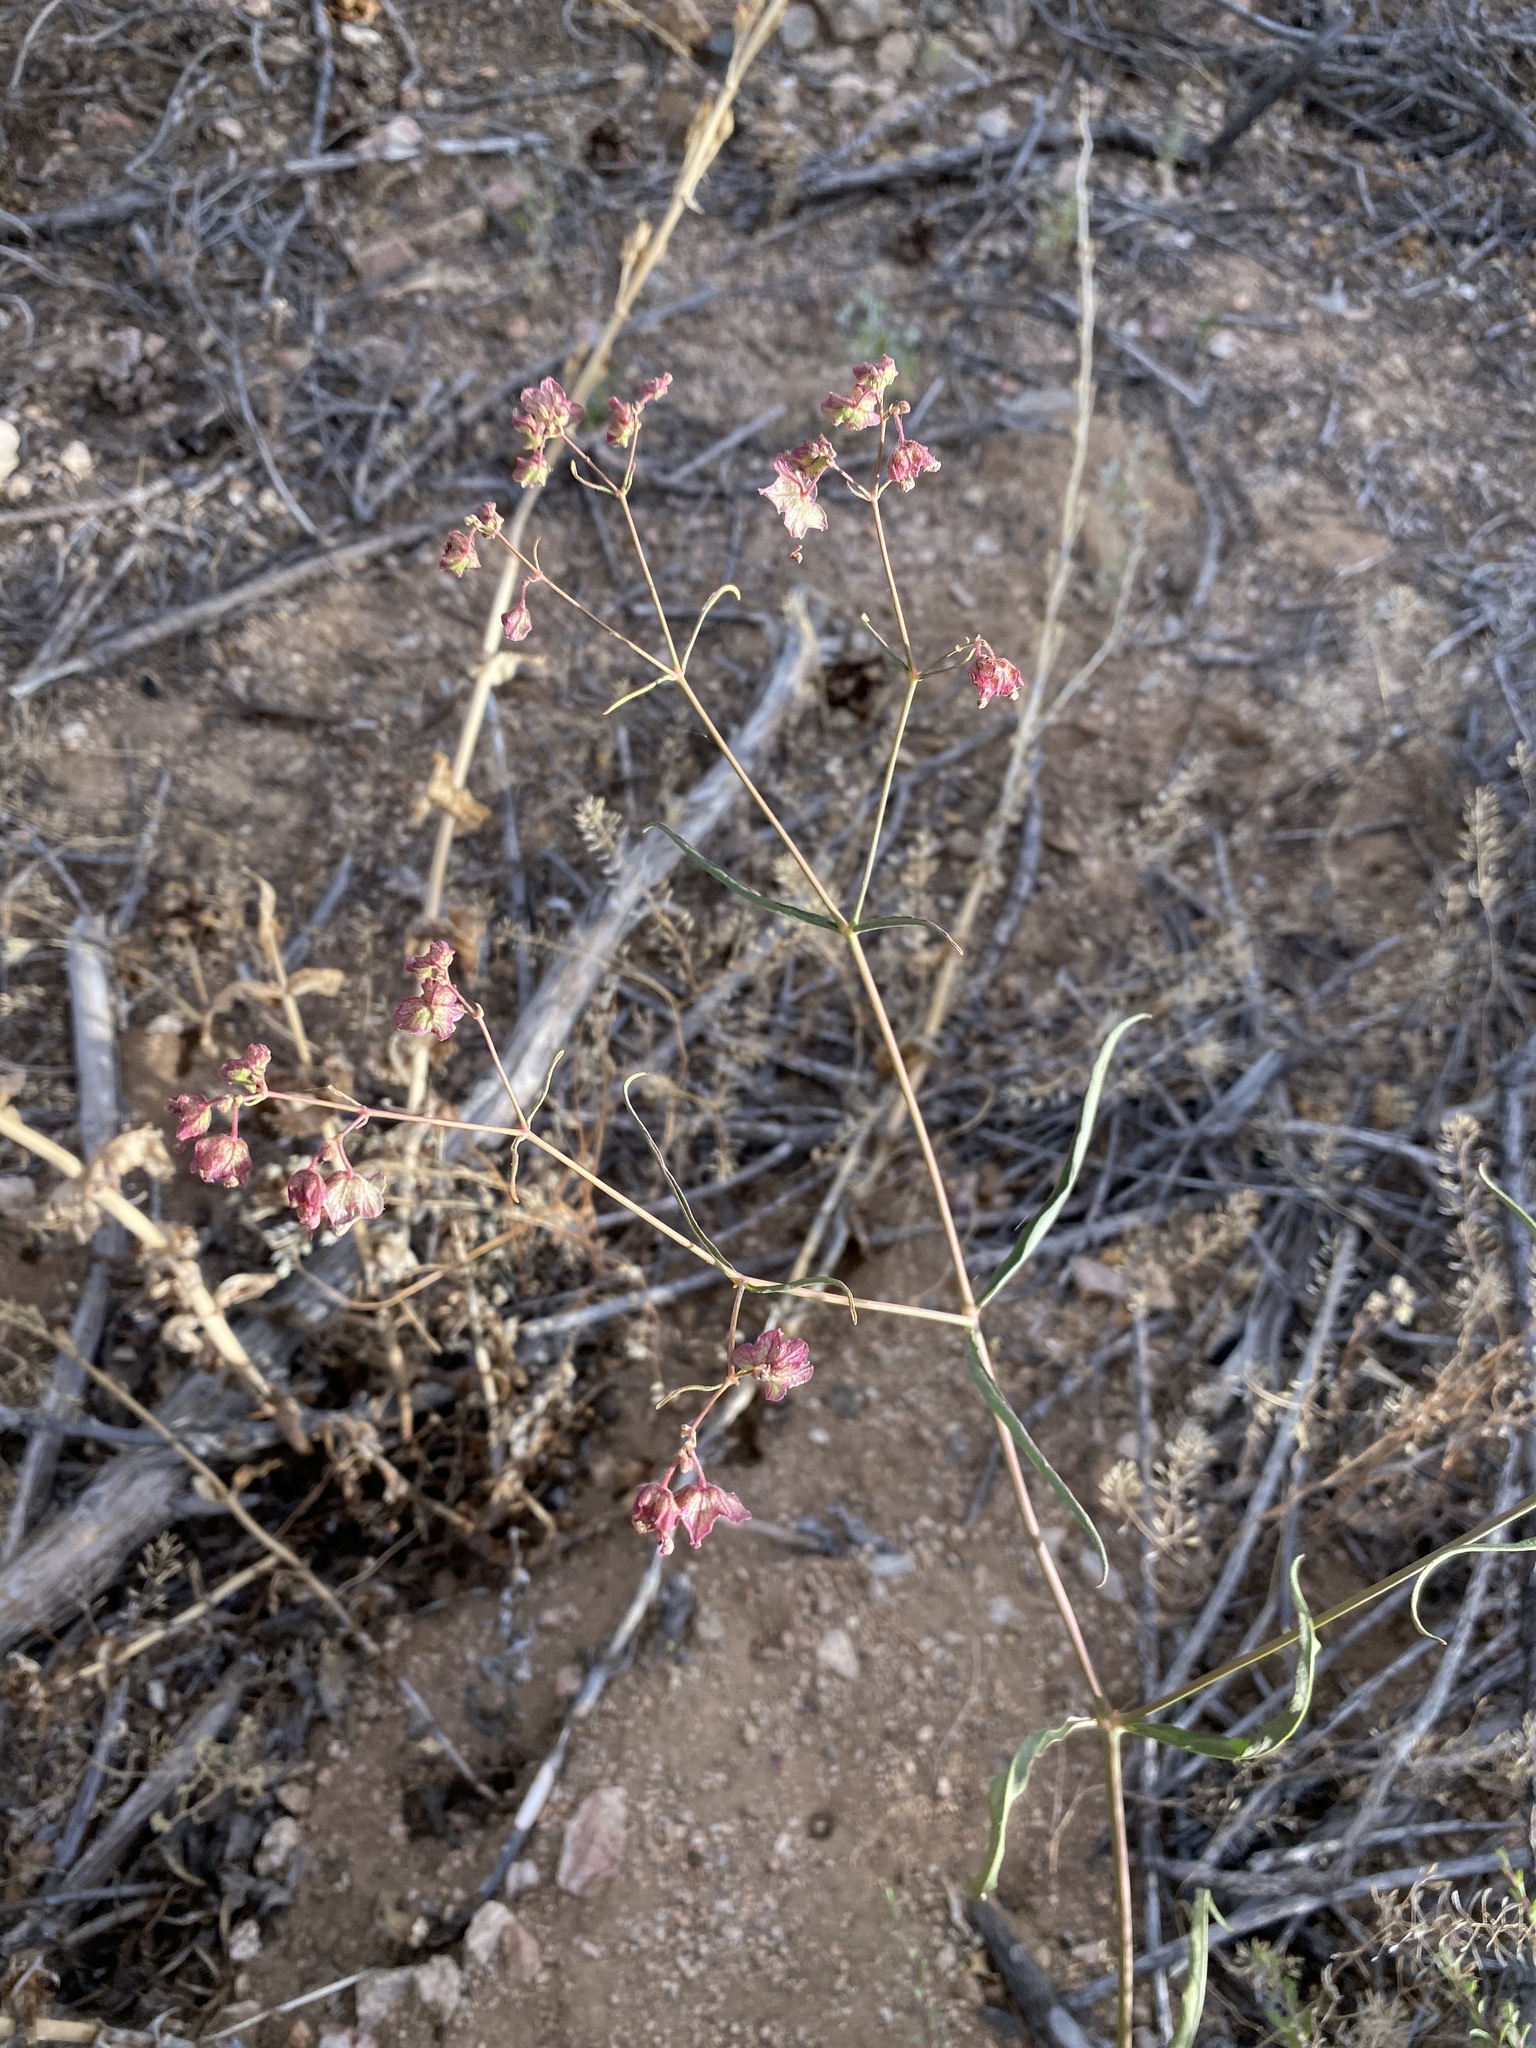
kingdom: Plantae
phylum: Tracheophyta
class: Magnoliopsida
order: Caryophyllales
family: Nyctaginaceae
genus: Mirabilis
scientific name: Mirabilis coccinea
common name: Scarlet four-o'clock
